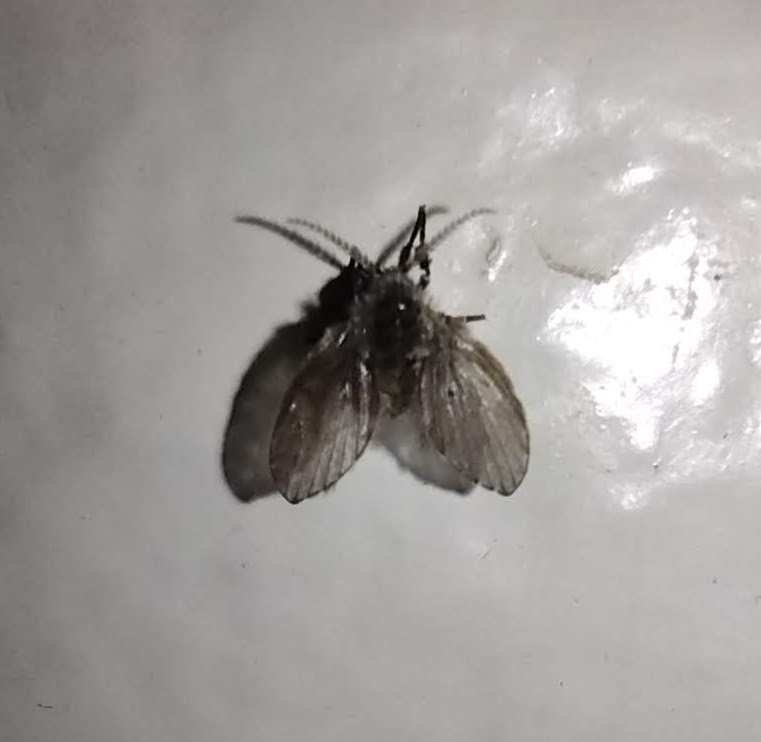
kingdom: Animalia
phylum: Arthropoda
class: Insecta
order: Diptera
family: Psychodidae
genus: Clogmia
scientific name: Clogmia albipunctatus
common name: White-spotted moth fly
